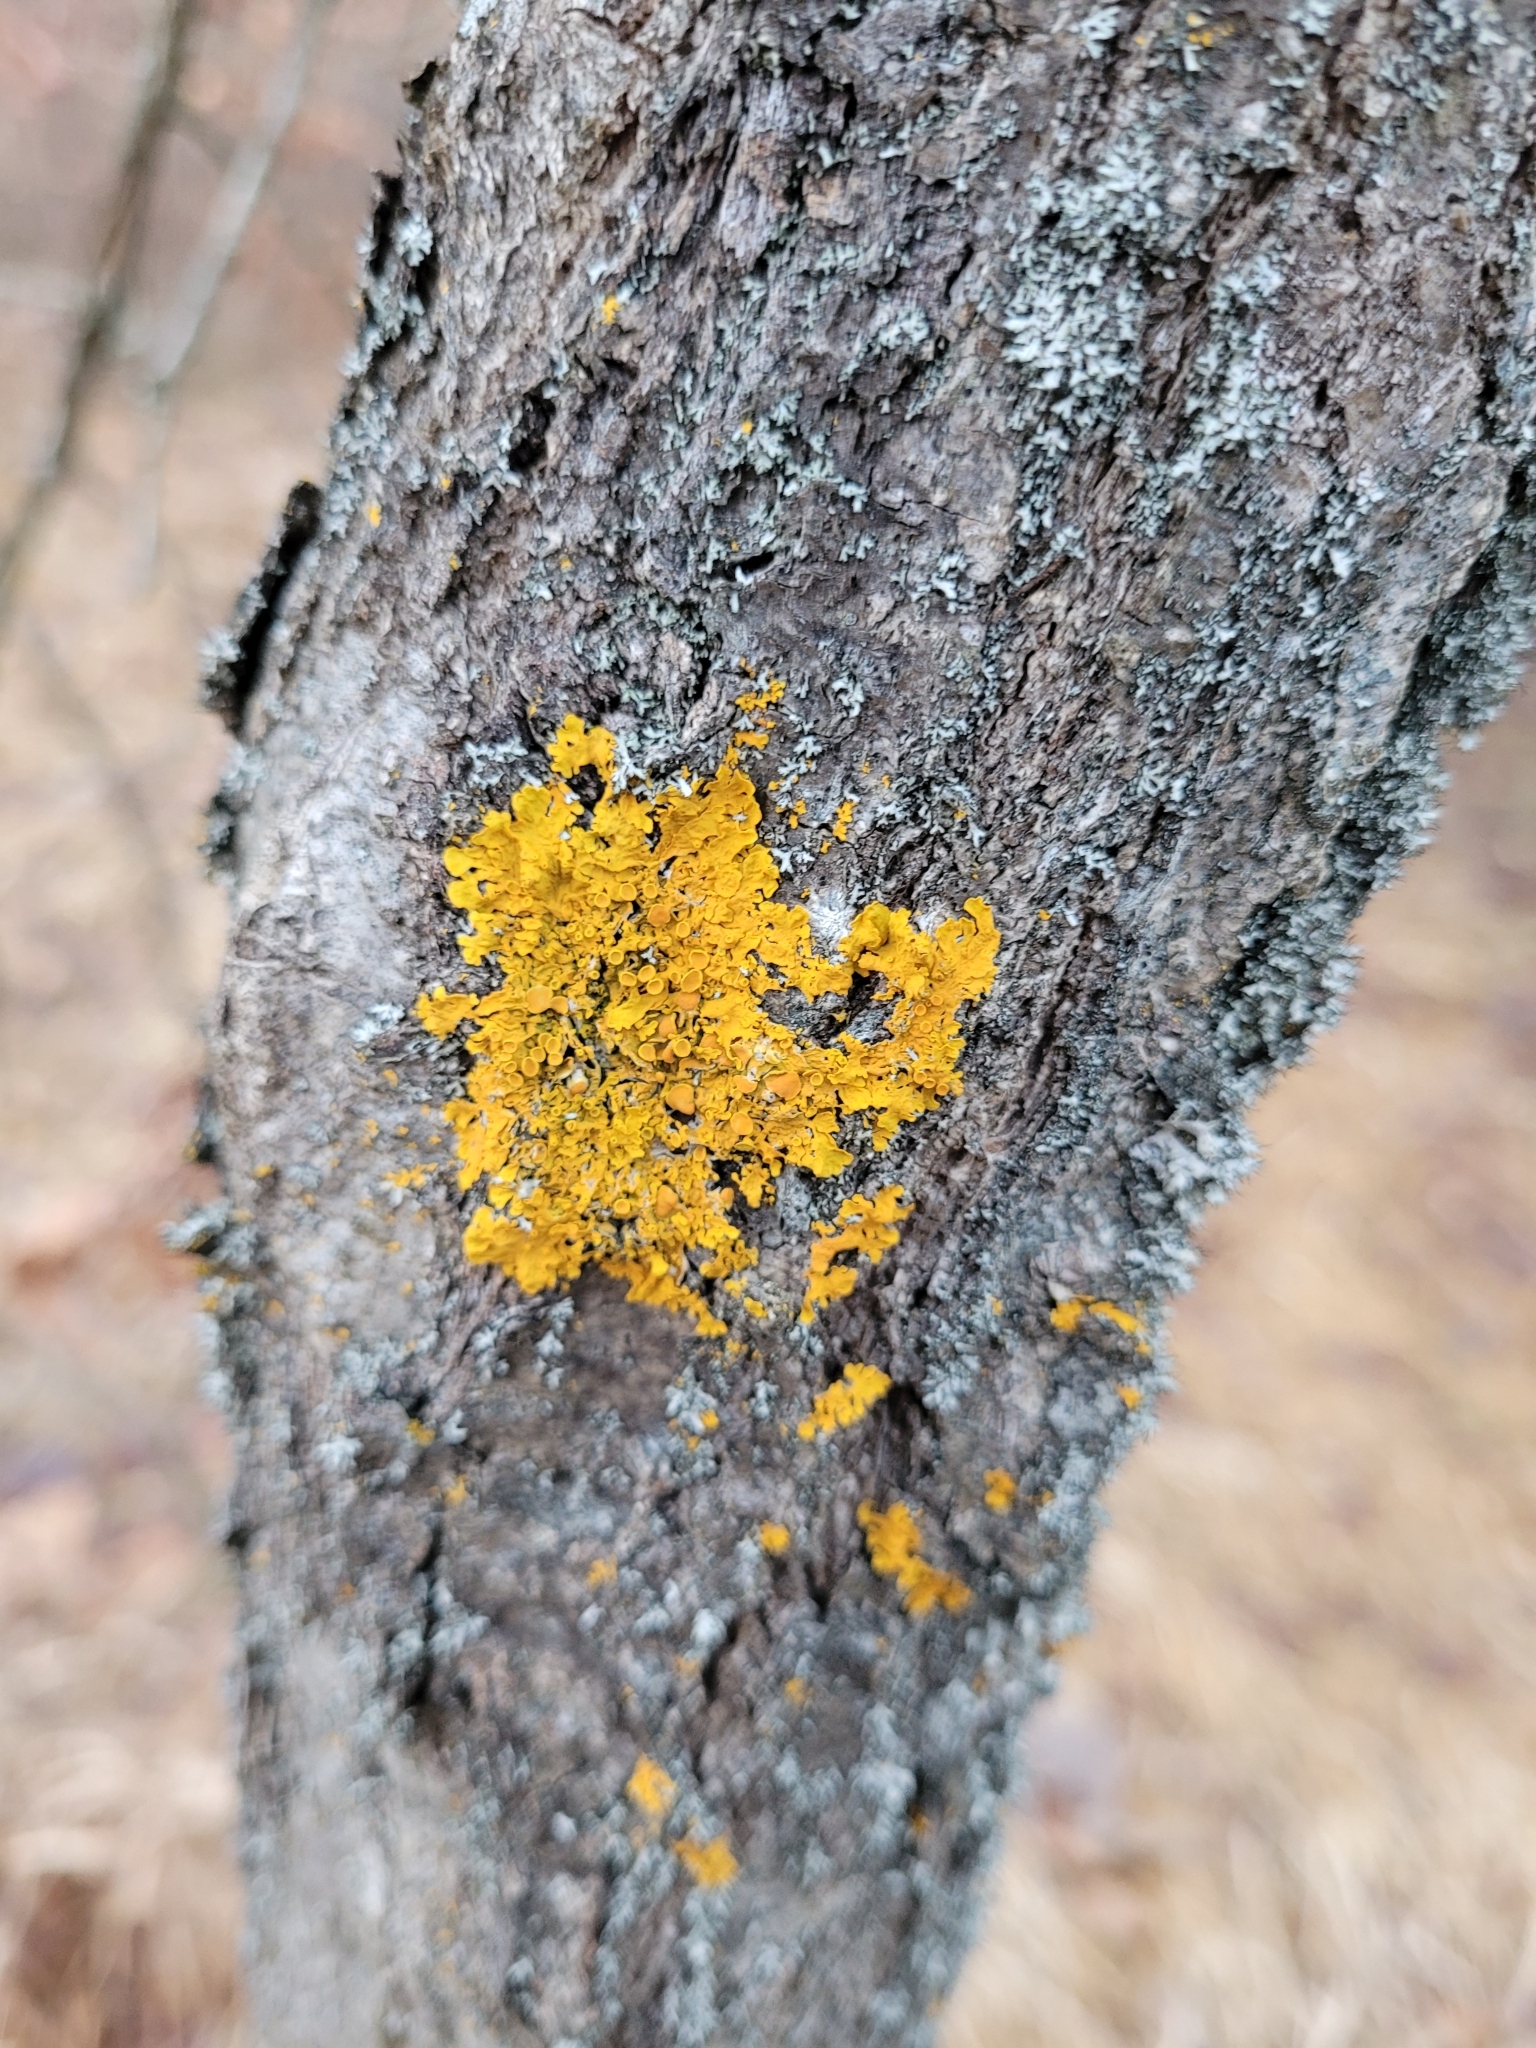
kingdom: Fungi
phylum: Ascomycota
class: Lecanoromycetes
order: Teloschistales
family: Teloschistaceae
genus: Xanthoria
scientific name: Xanthoria parietina
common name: Common orange lichen
